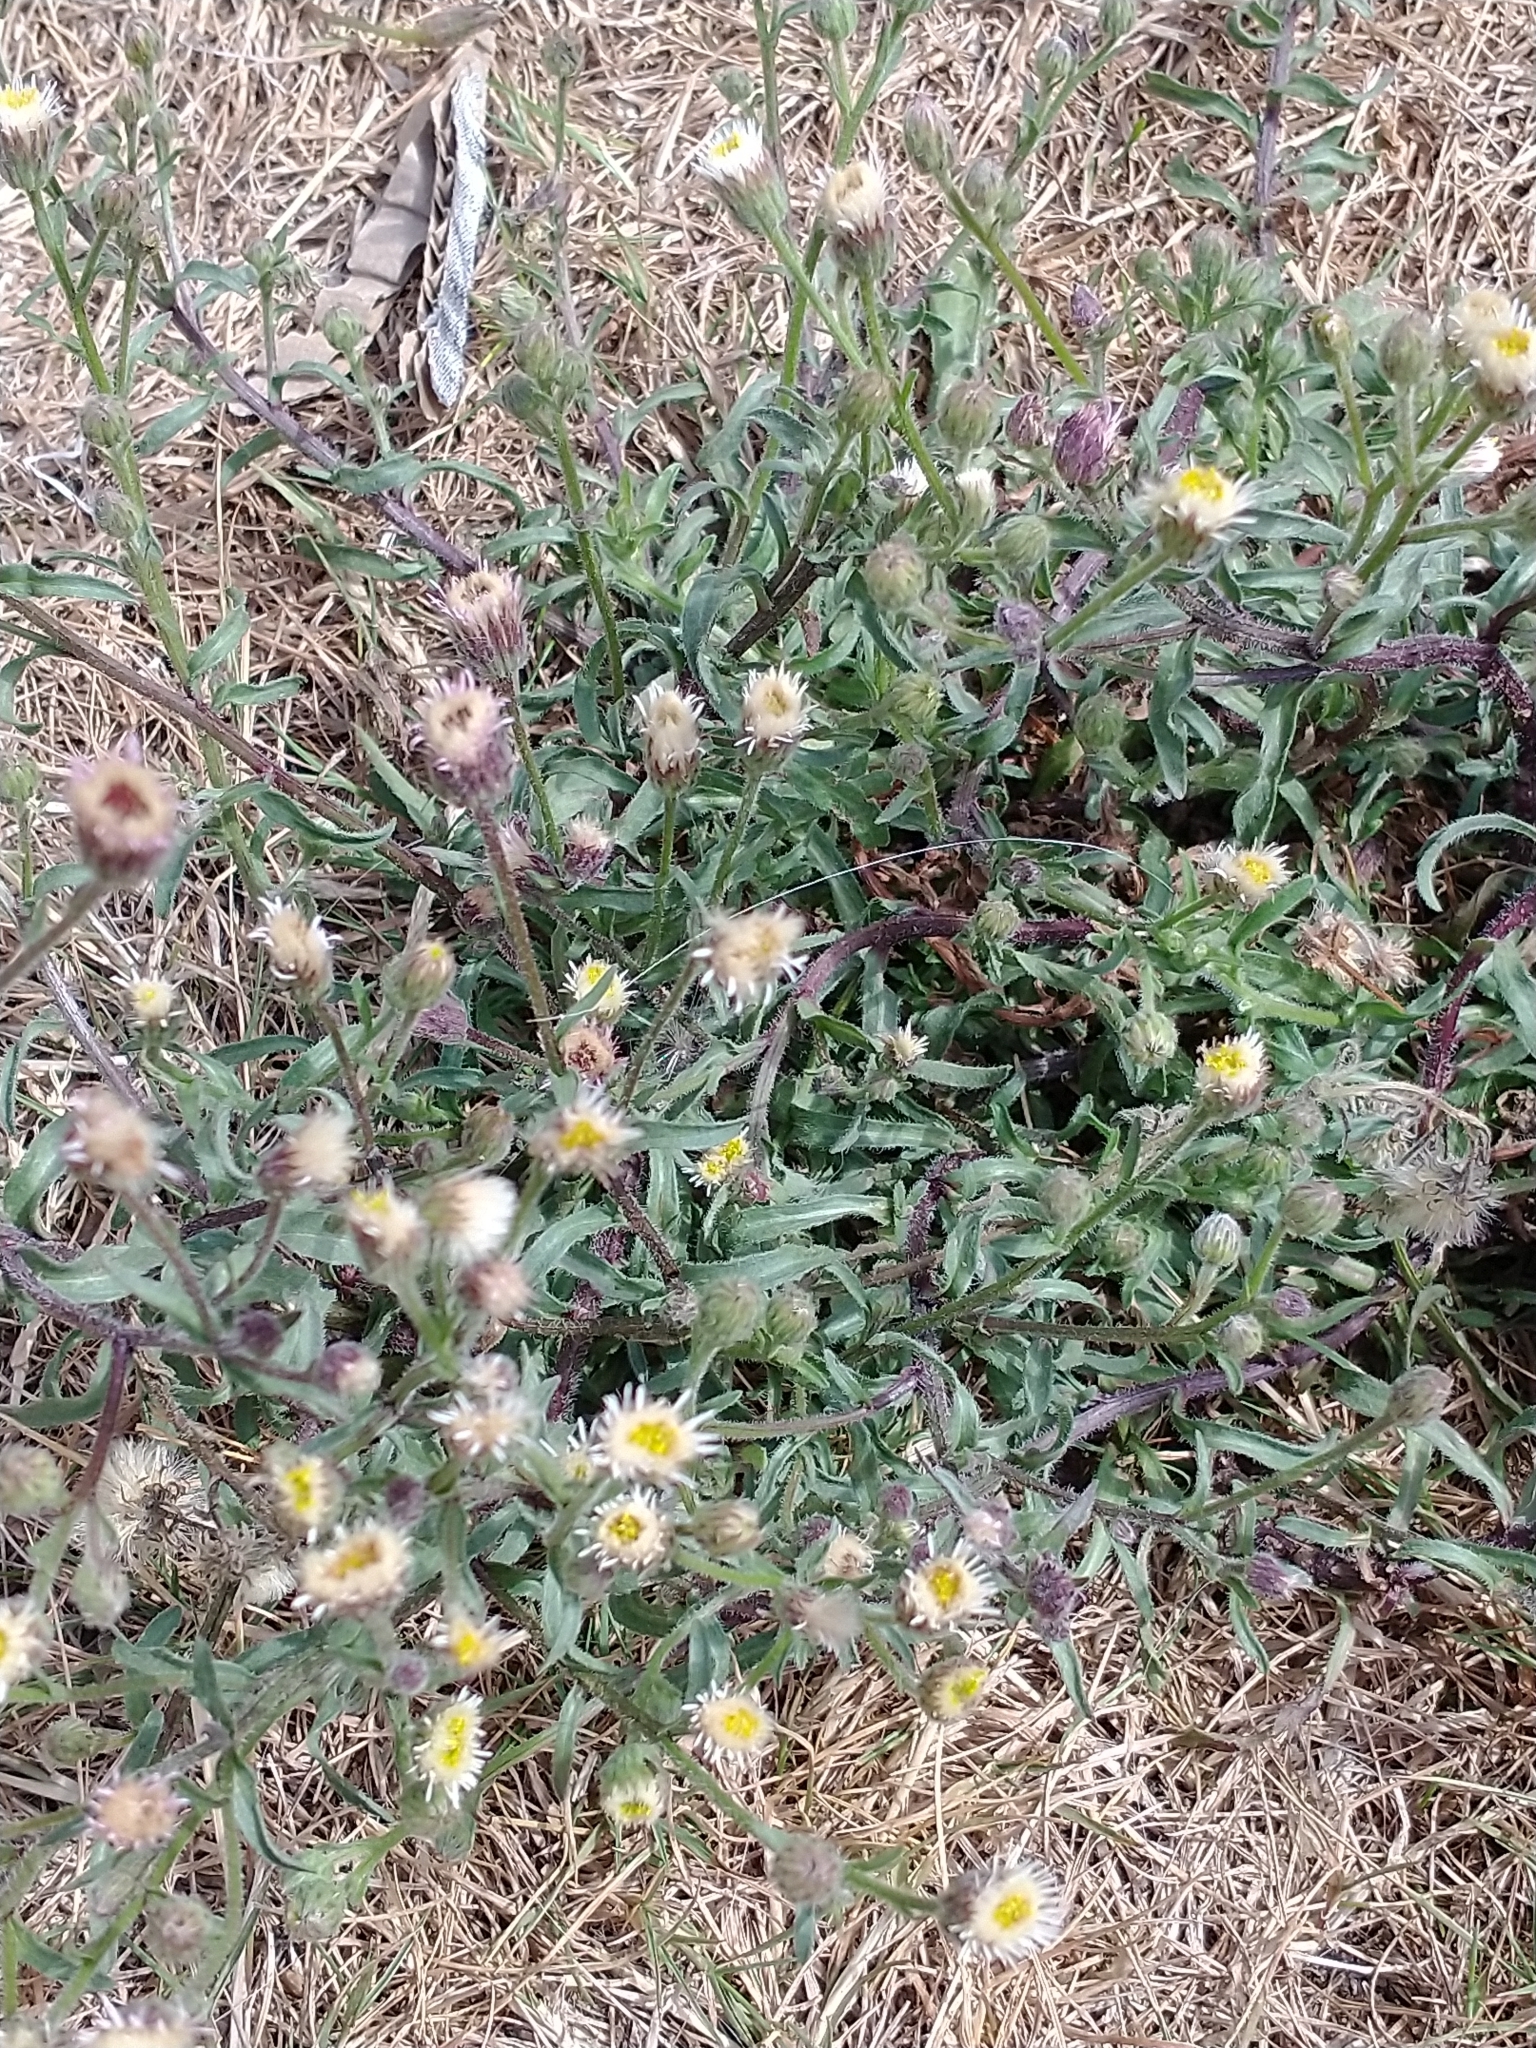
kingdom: Plantae
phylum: Tracheophyta
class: Magnoliopsida
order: Asterales
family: Asteraceae
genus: Erigeron
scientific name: Erigeron acris
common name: Blue fleabane
